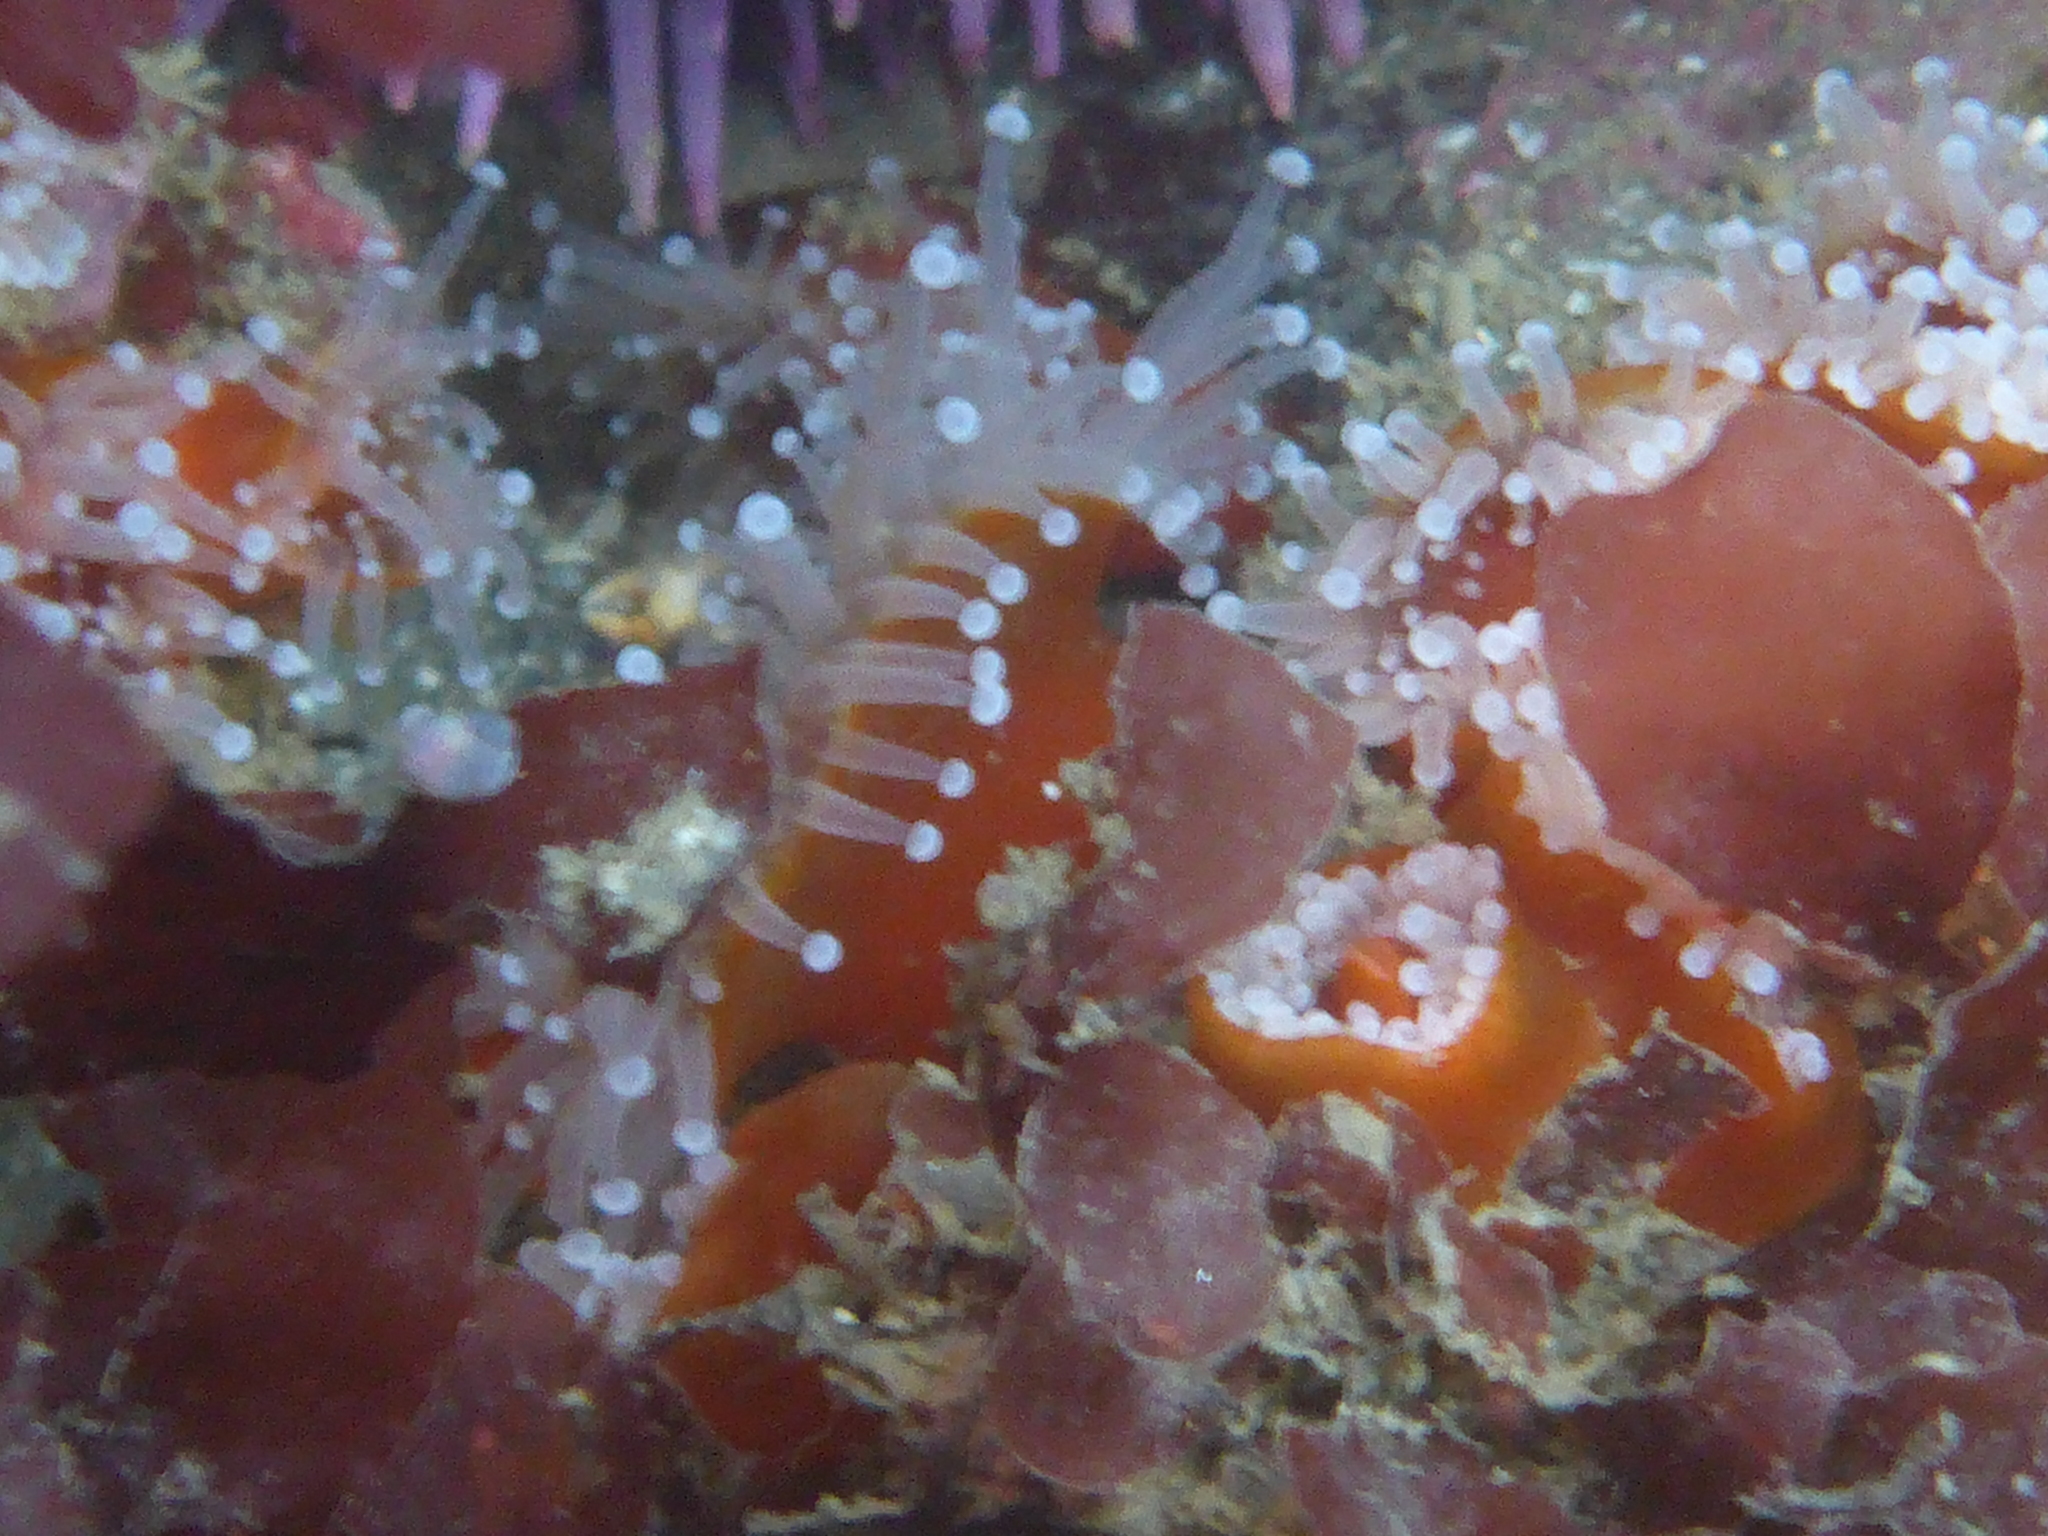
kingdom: Animalia
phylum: Cnidaria
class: Anthozoa
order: Corallimorpharia
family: Corallimorphidae
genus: Corynactis
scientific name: Corynactis californica
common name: Strawberry corallimorpharian
